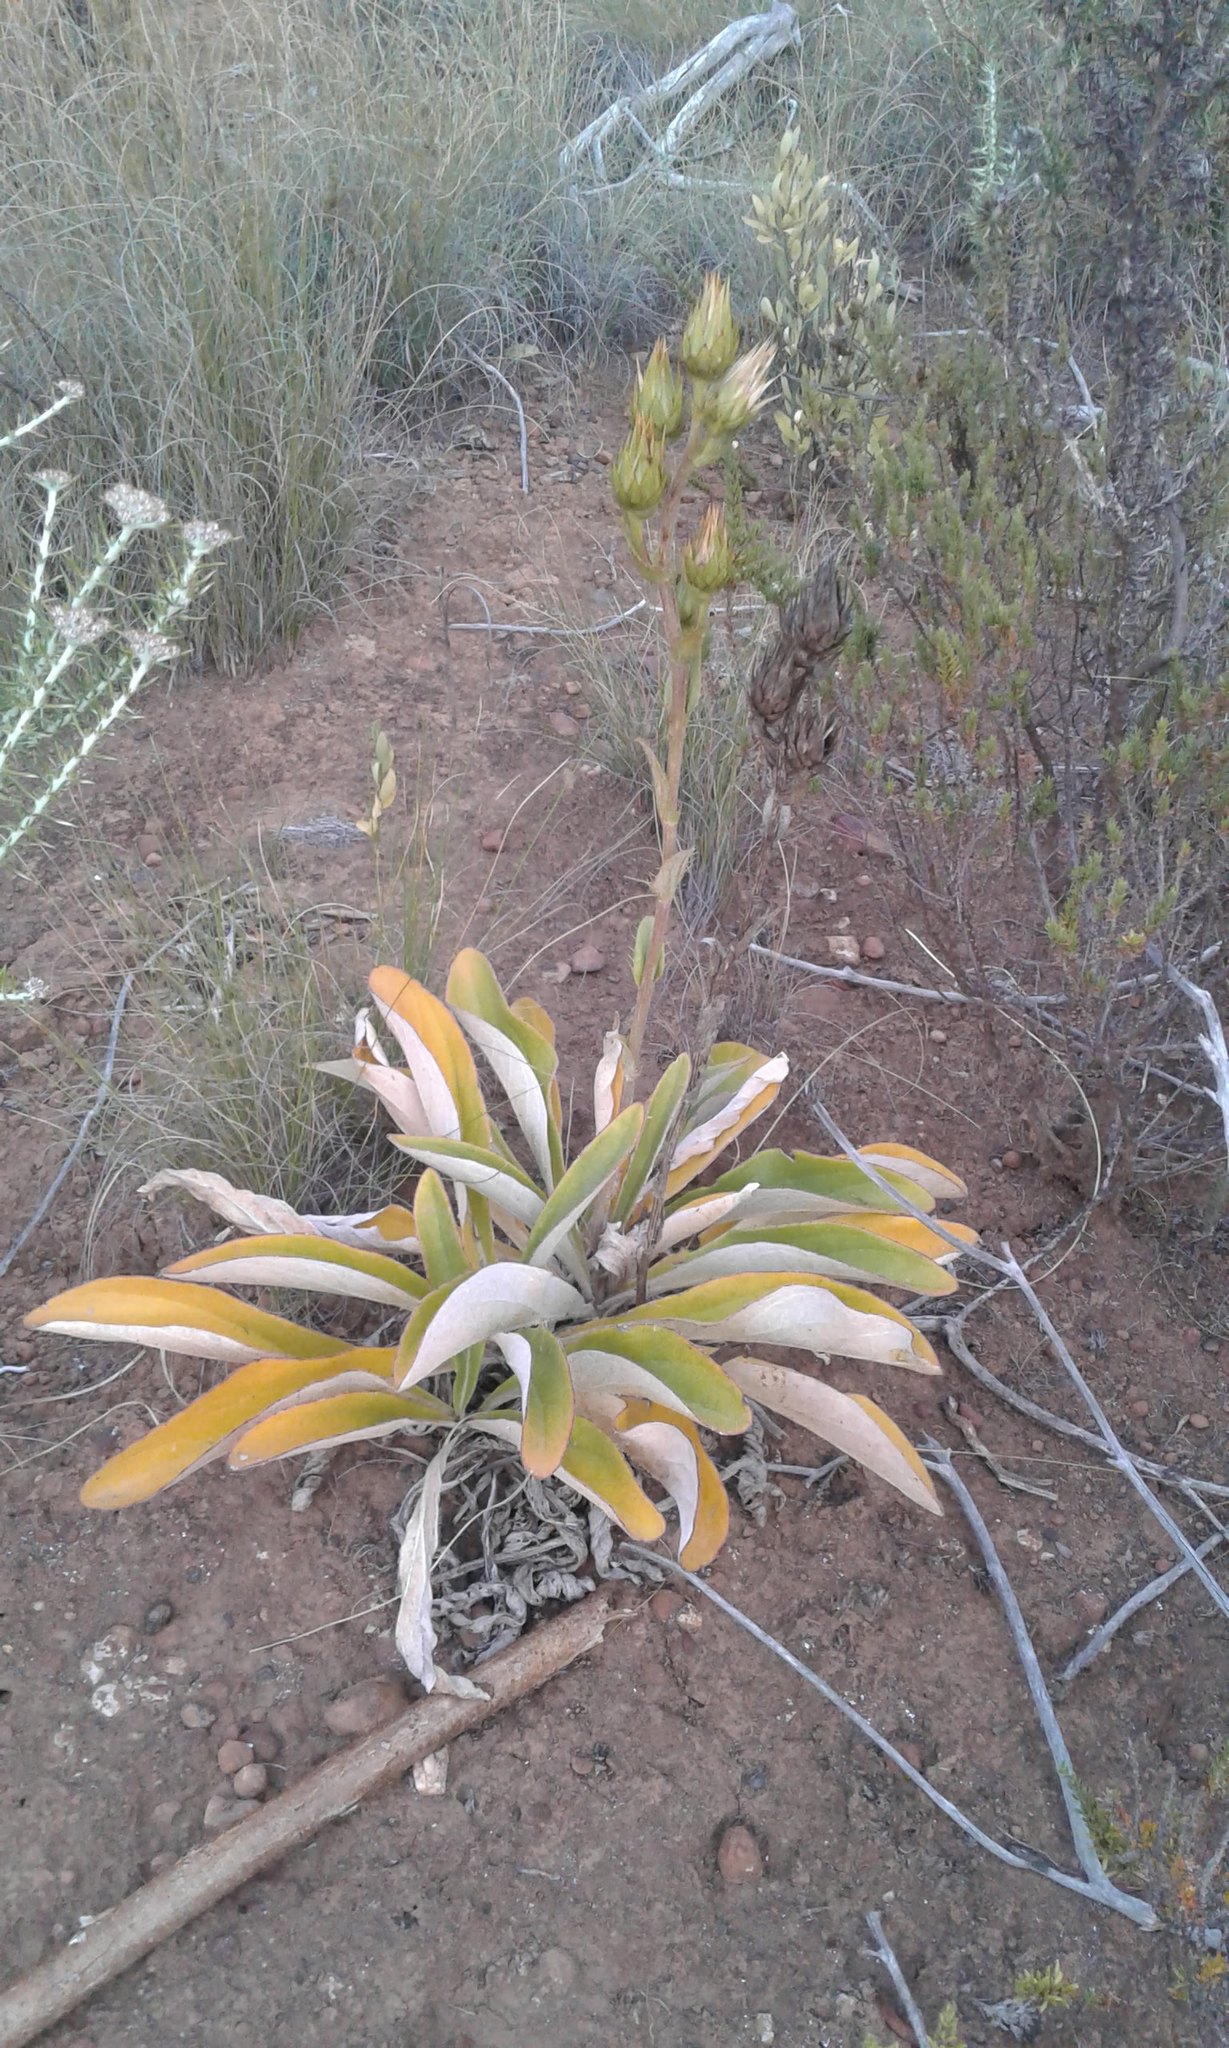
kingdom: Plantae
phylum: Tracheophyta
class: Magnoliopsida
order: Asterales
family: Asteraceae
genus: Berkheya
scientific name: Berkheya herbacea
